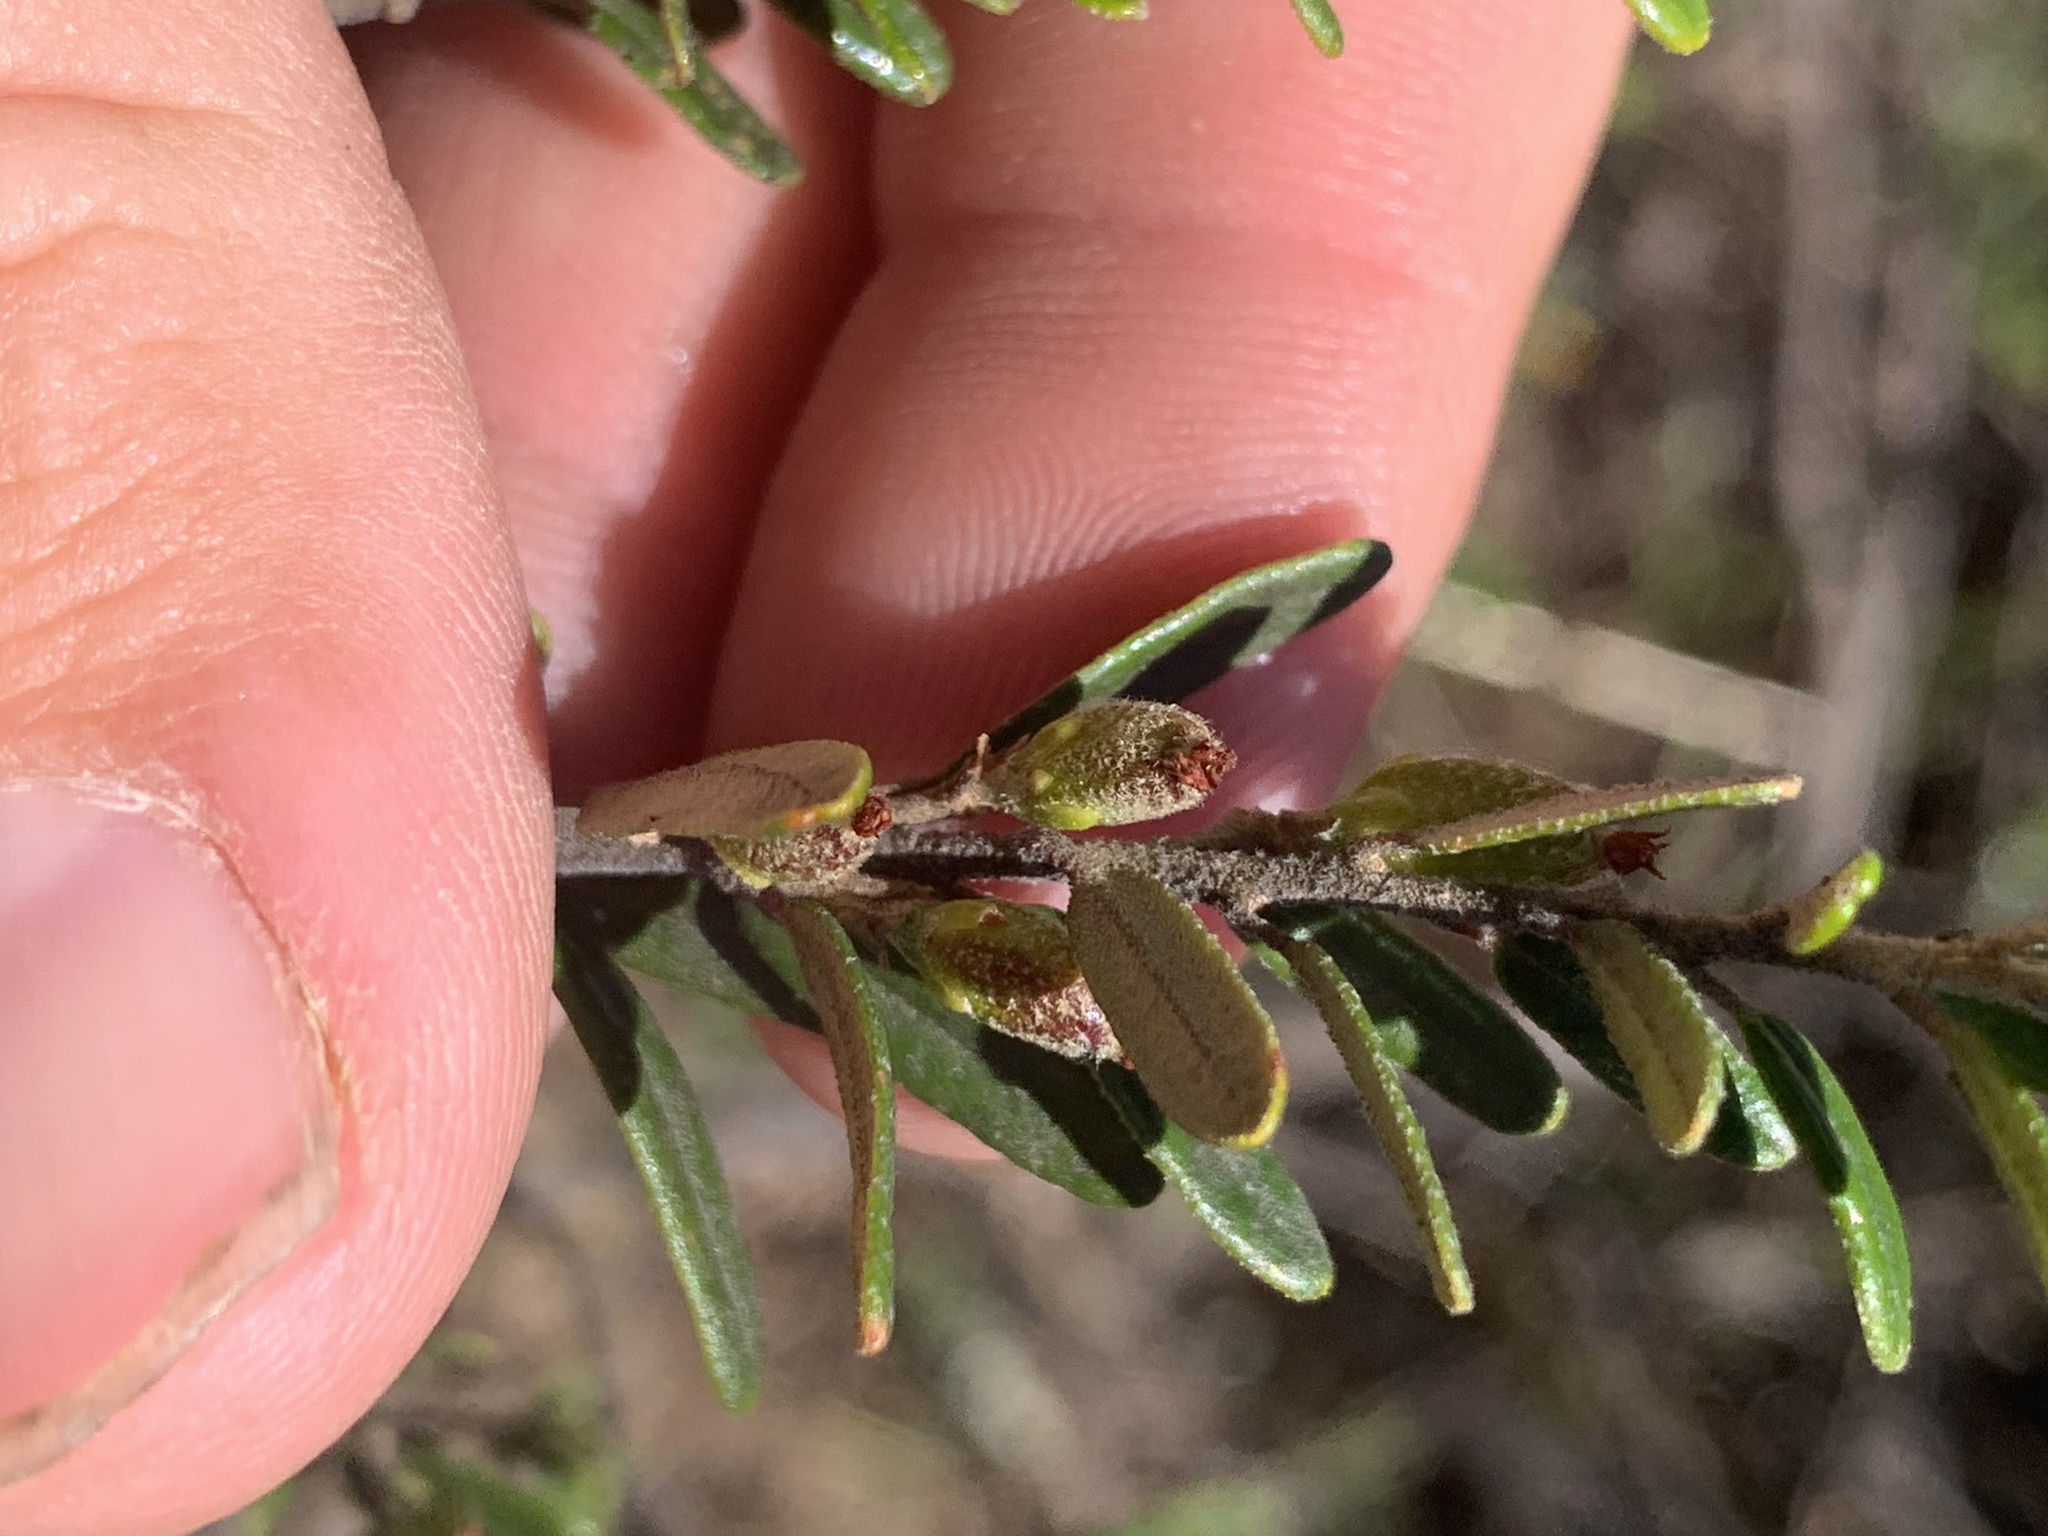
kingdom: Plantae
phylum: Tracheophyta
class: Magnoliopsida
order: Malpighiales
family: Euphorbiaceae
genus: Bertya
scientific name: Bertya oblonga
